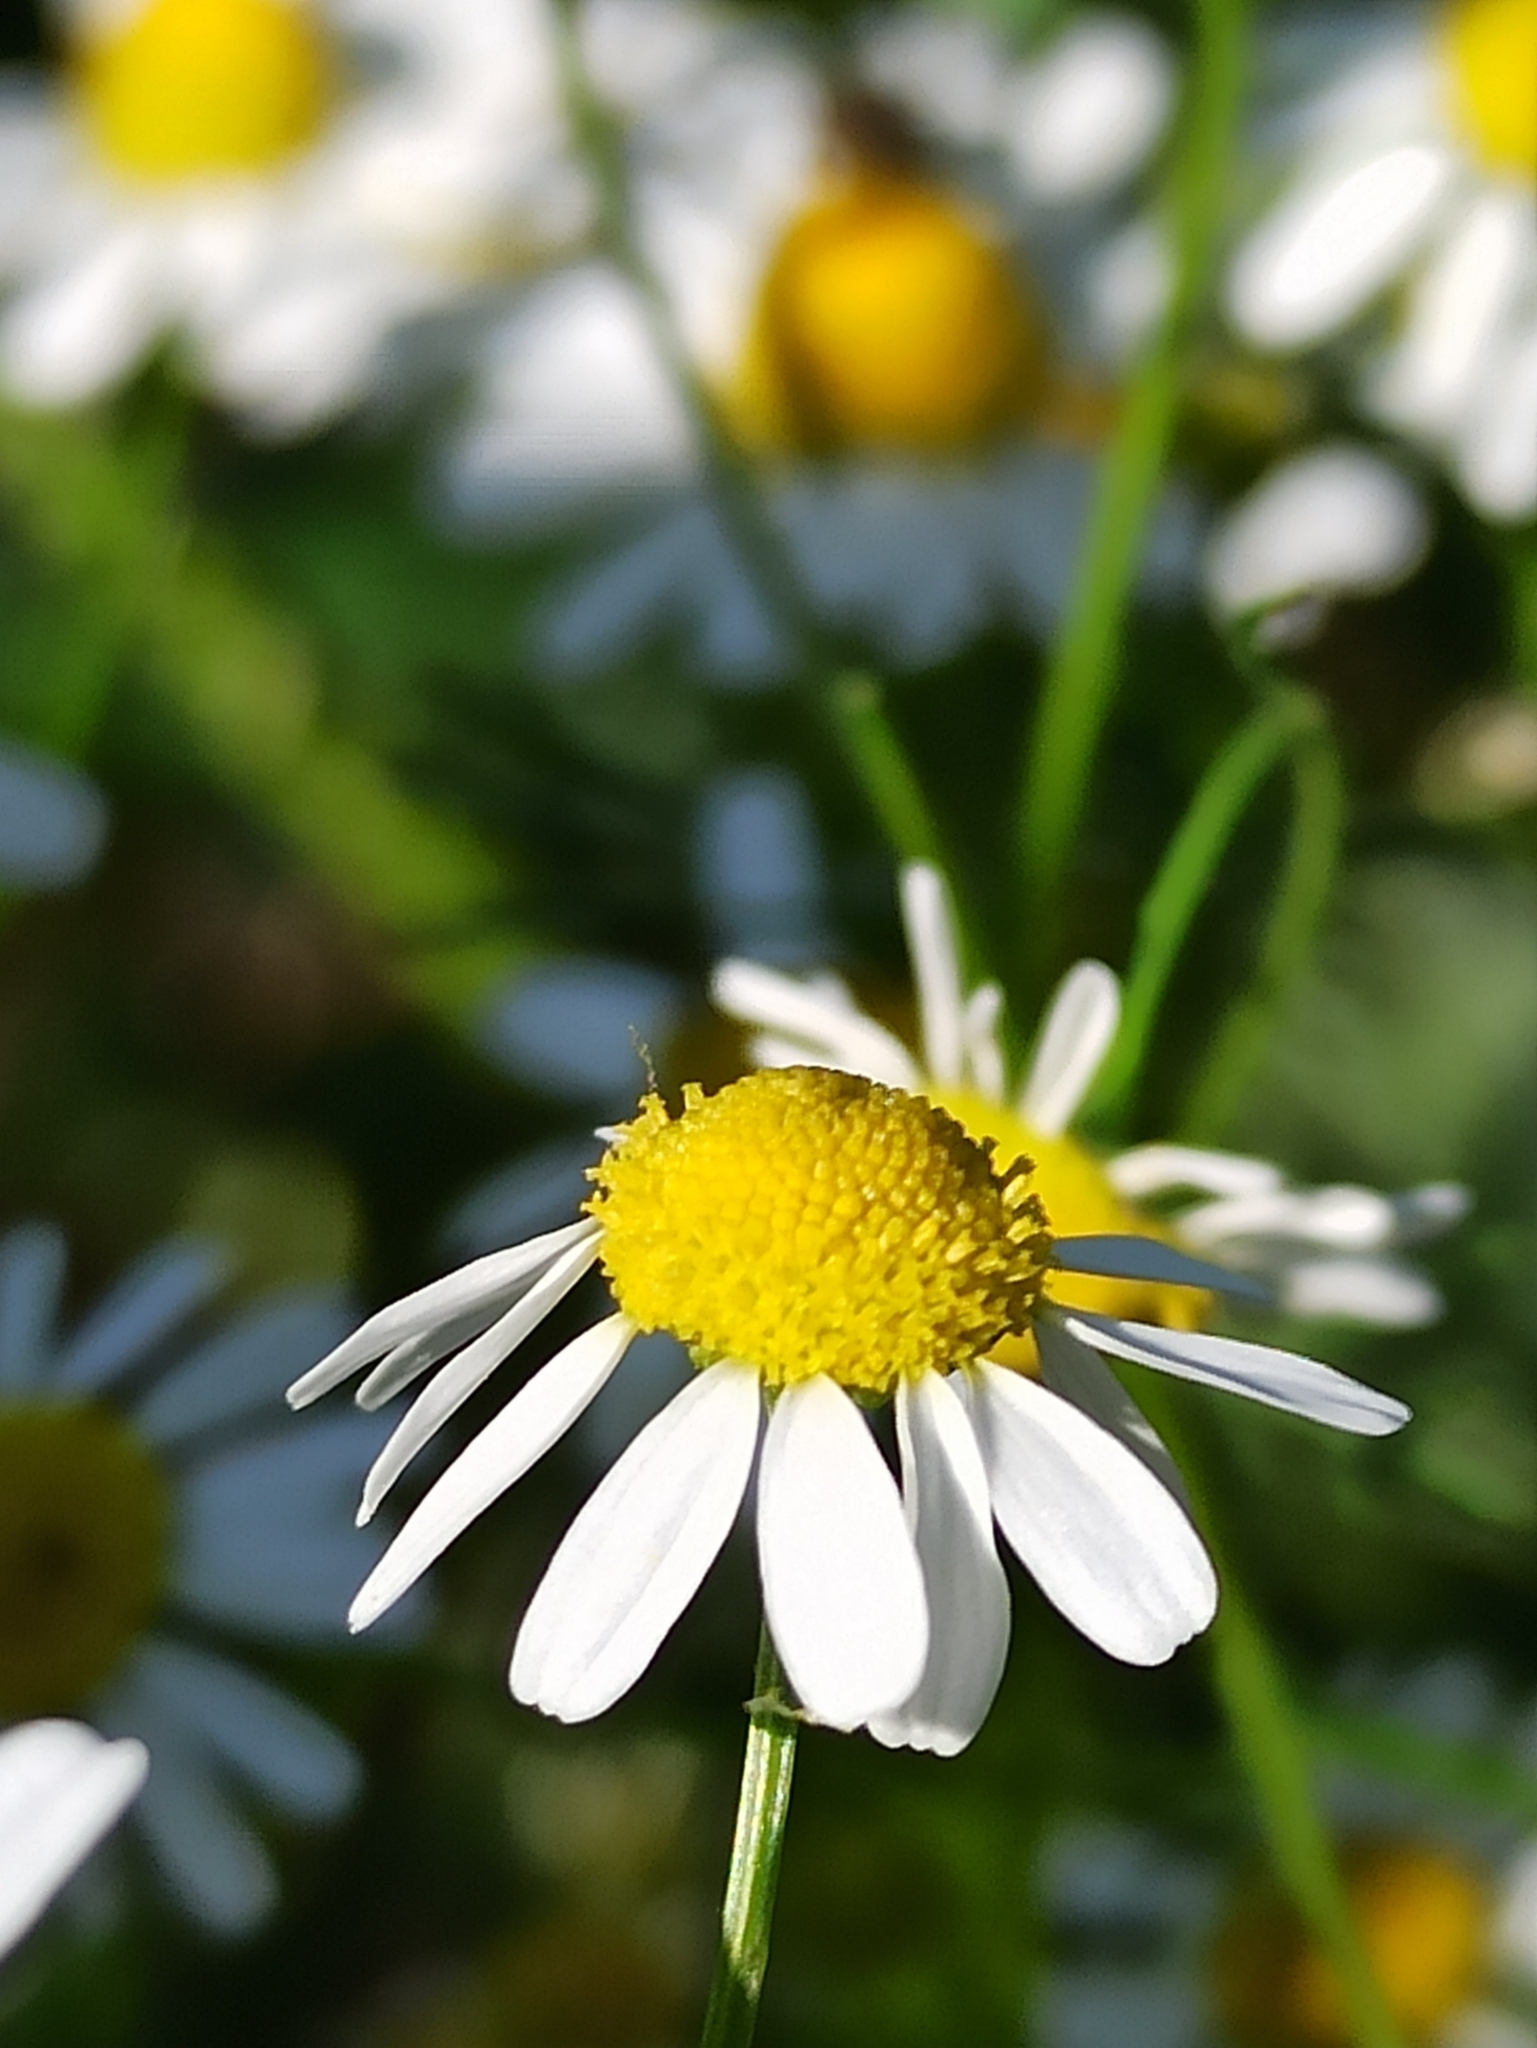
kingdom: Plantae
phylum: Tracheophyta
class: Magnoliopsida
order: Asterales
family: Asteraceae
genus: Matricaria
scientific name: Matricaria chamomilla
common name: Scented mayweed
